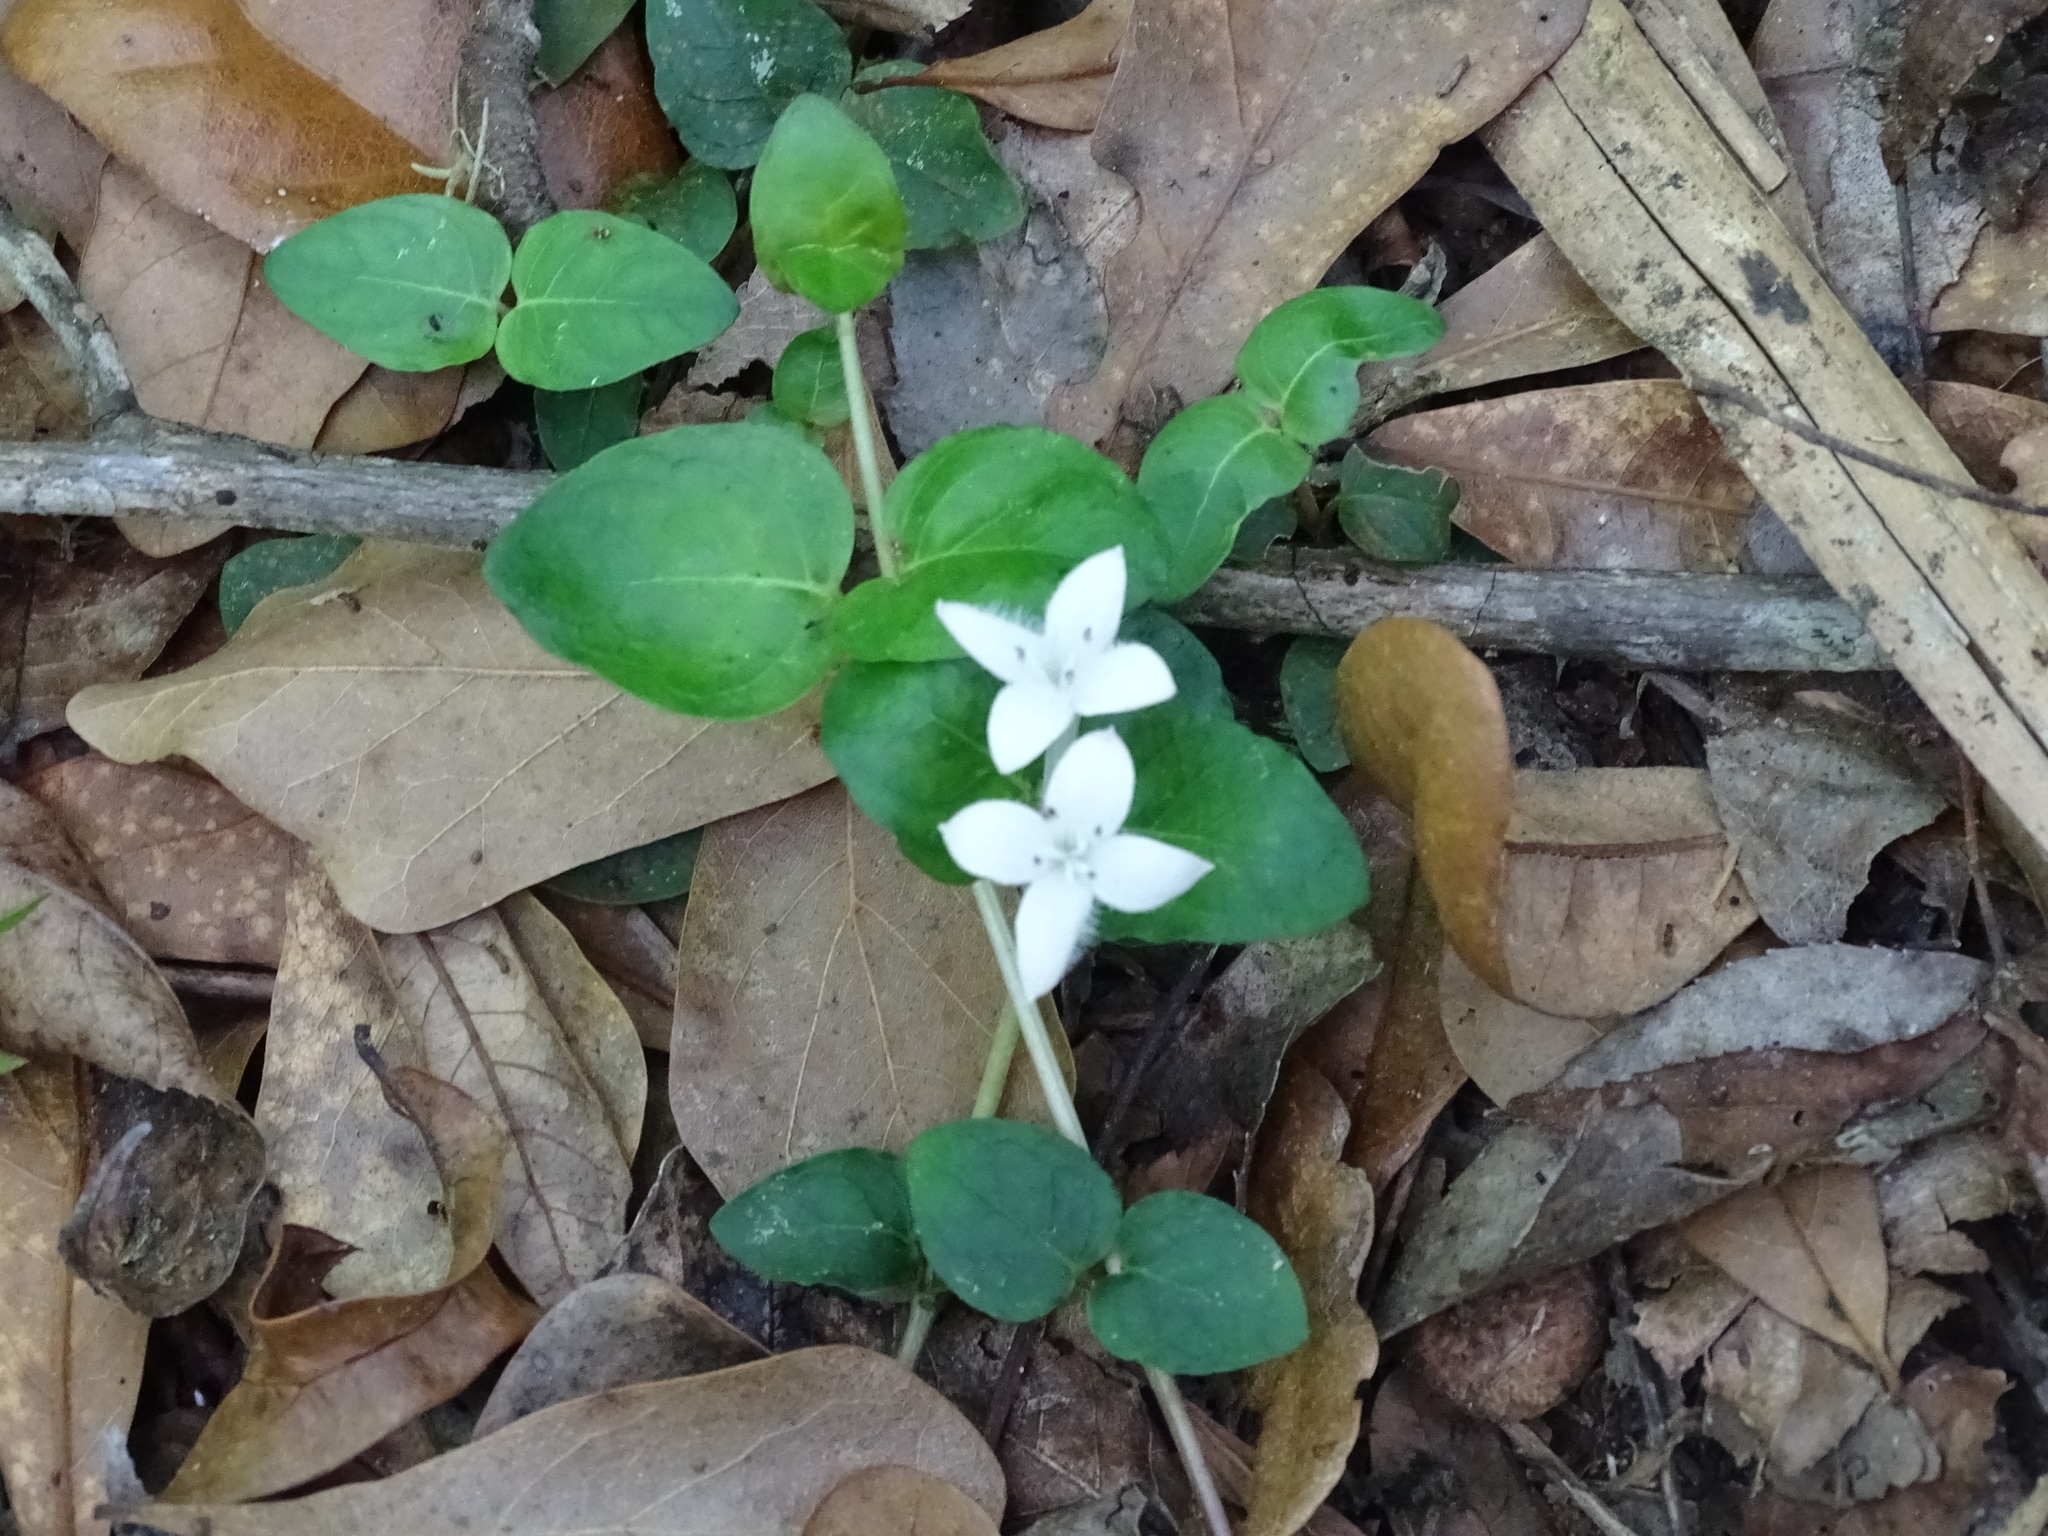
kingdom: Plantae
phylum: Tracheophyta
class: Magnoliopsida
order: Gentianales
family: Rubiaceae
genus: Mitchella
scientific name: Mitchella repens
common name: Partridge-berry
